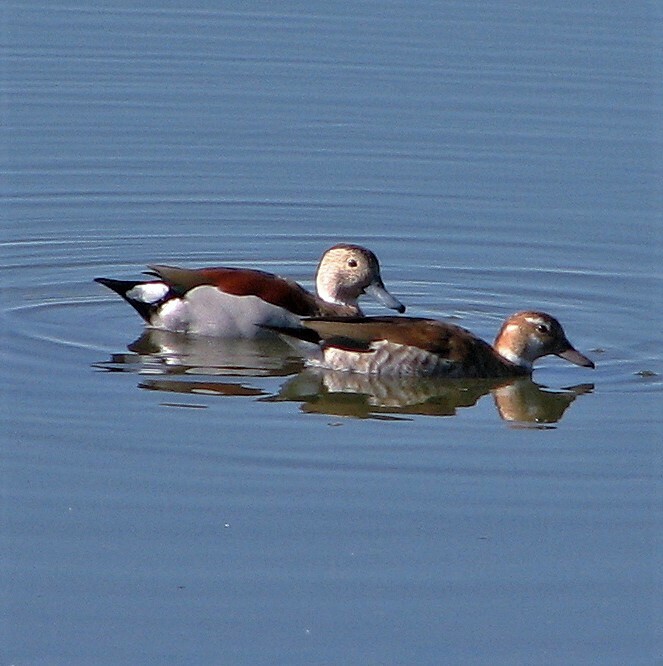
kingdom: Animalia
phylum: Chordata
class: Aves
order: Anseriformes
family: Anatidae
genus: Callonetta
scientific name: Callonetta leucophrys
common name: Ringed teal
